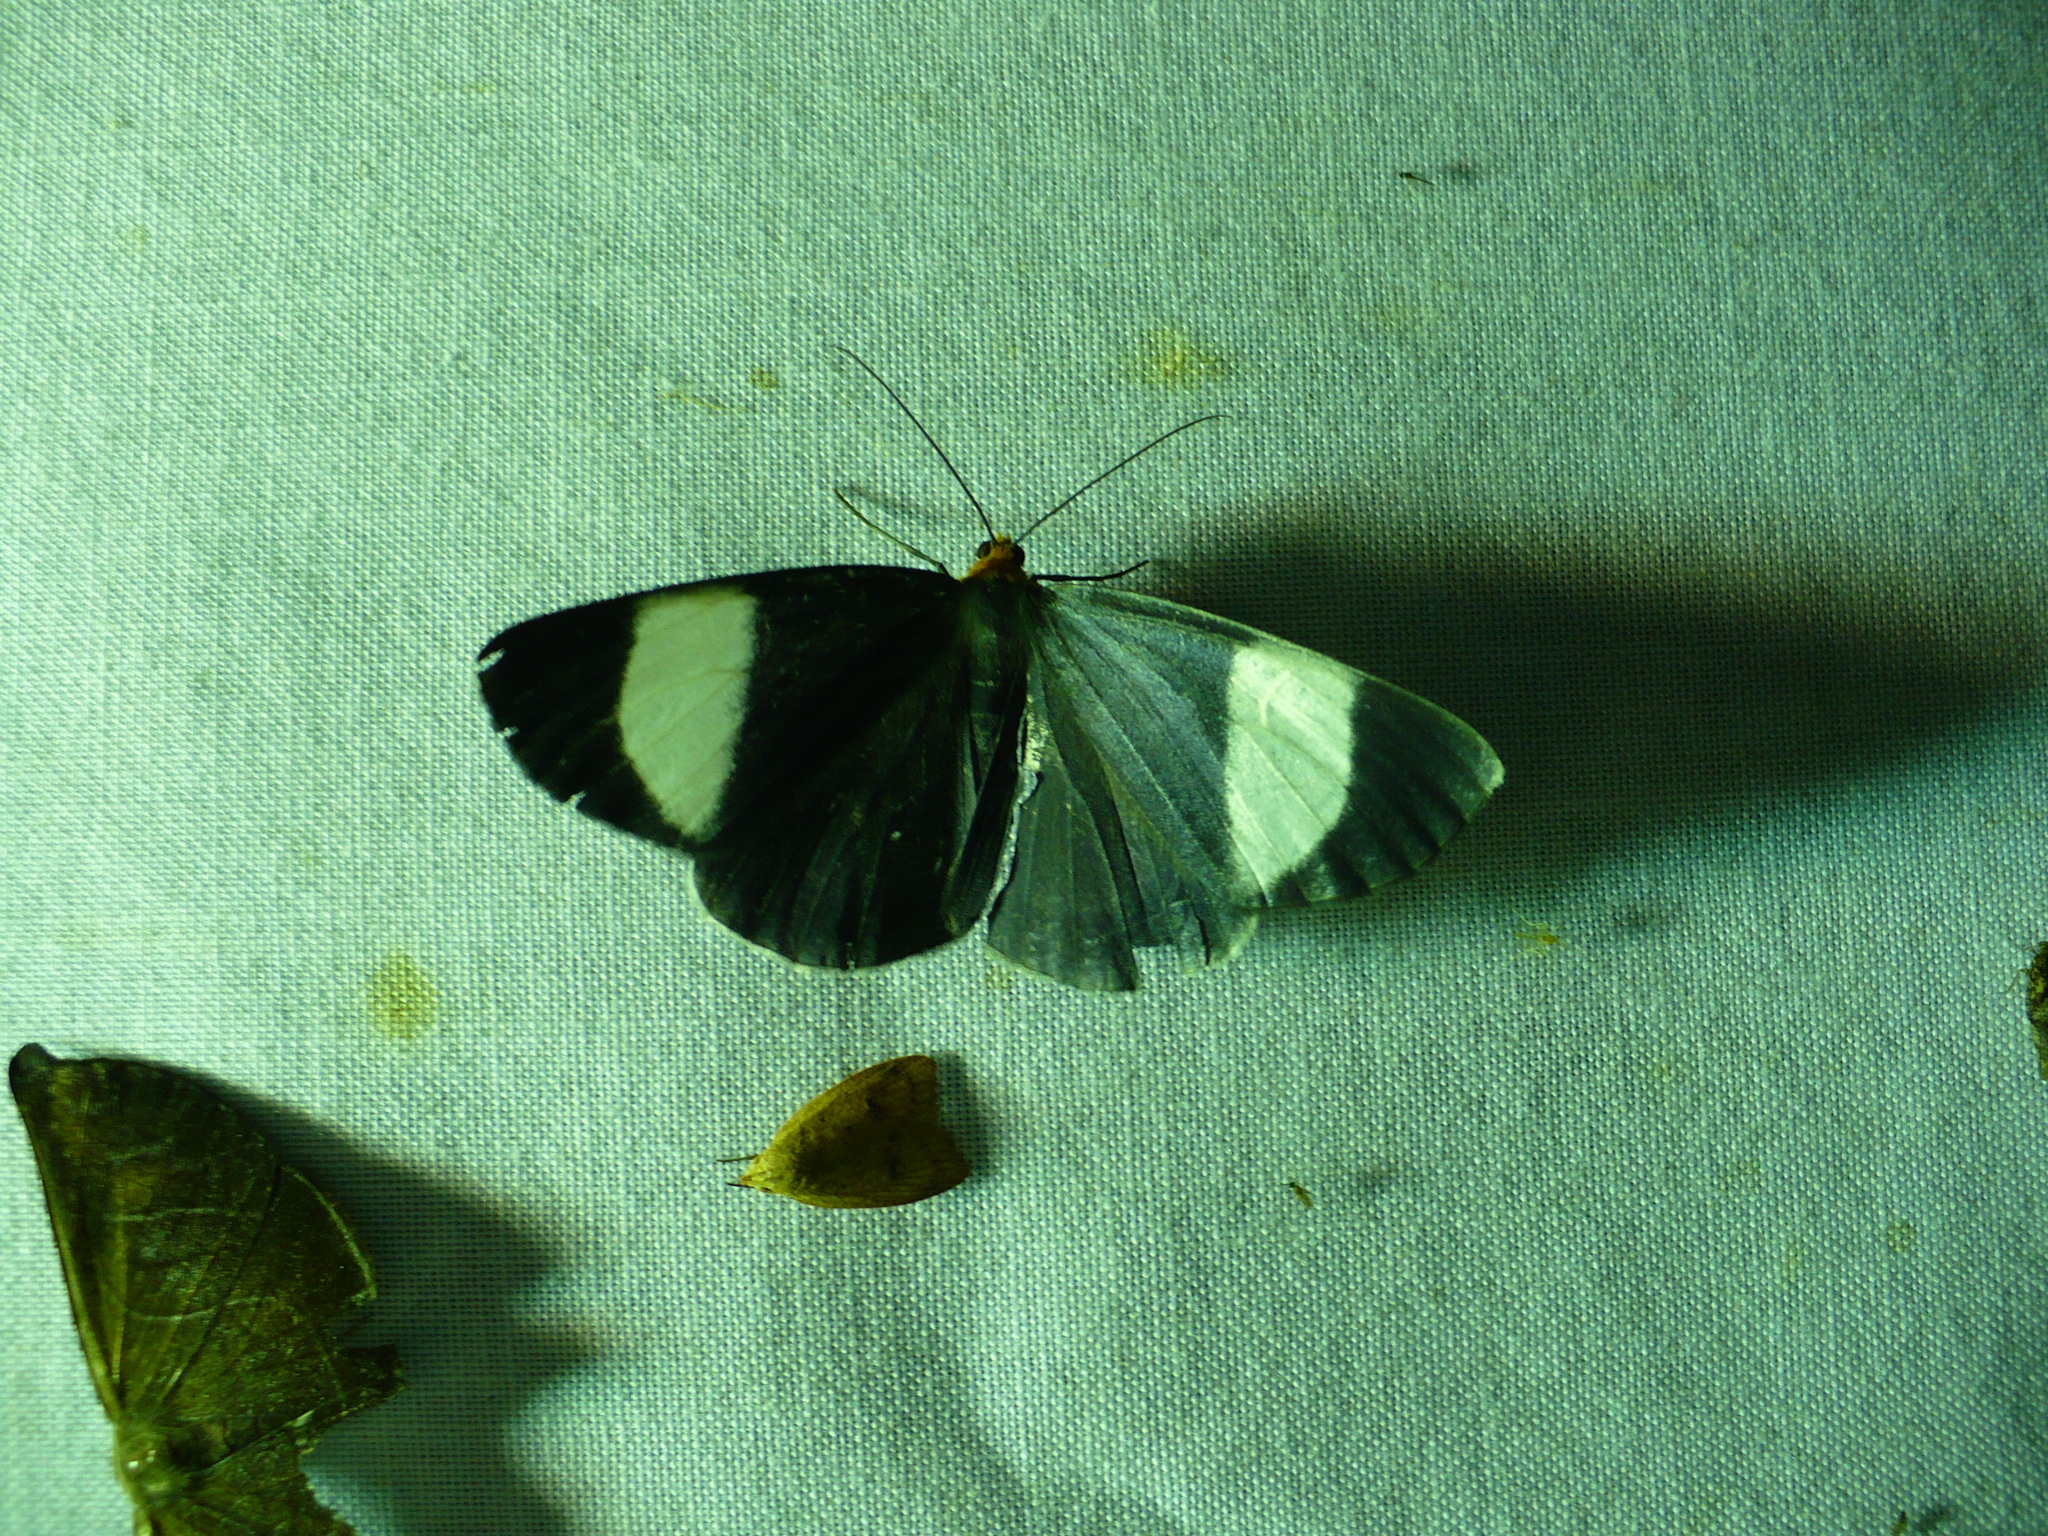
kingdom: Animalia
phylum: Arthropoda
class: Insecta
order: Lepidoptera
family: Geometridae
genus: Simena
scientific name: Simena luctifera
